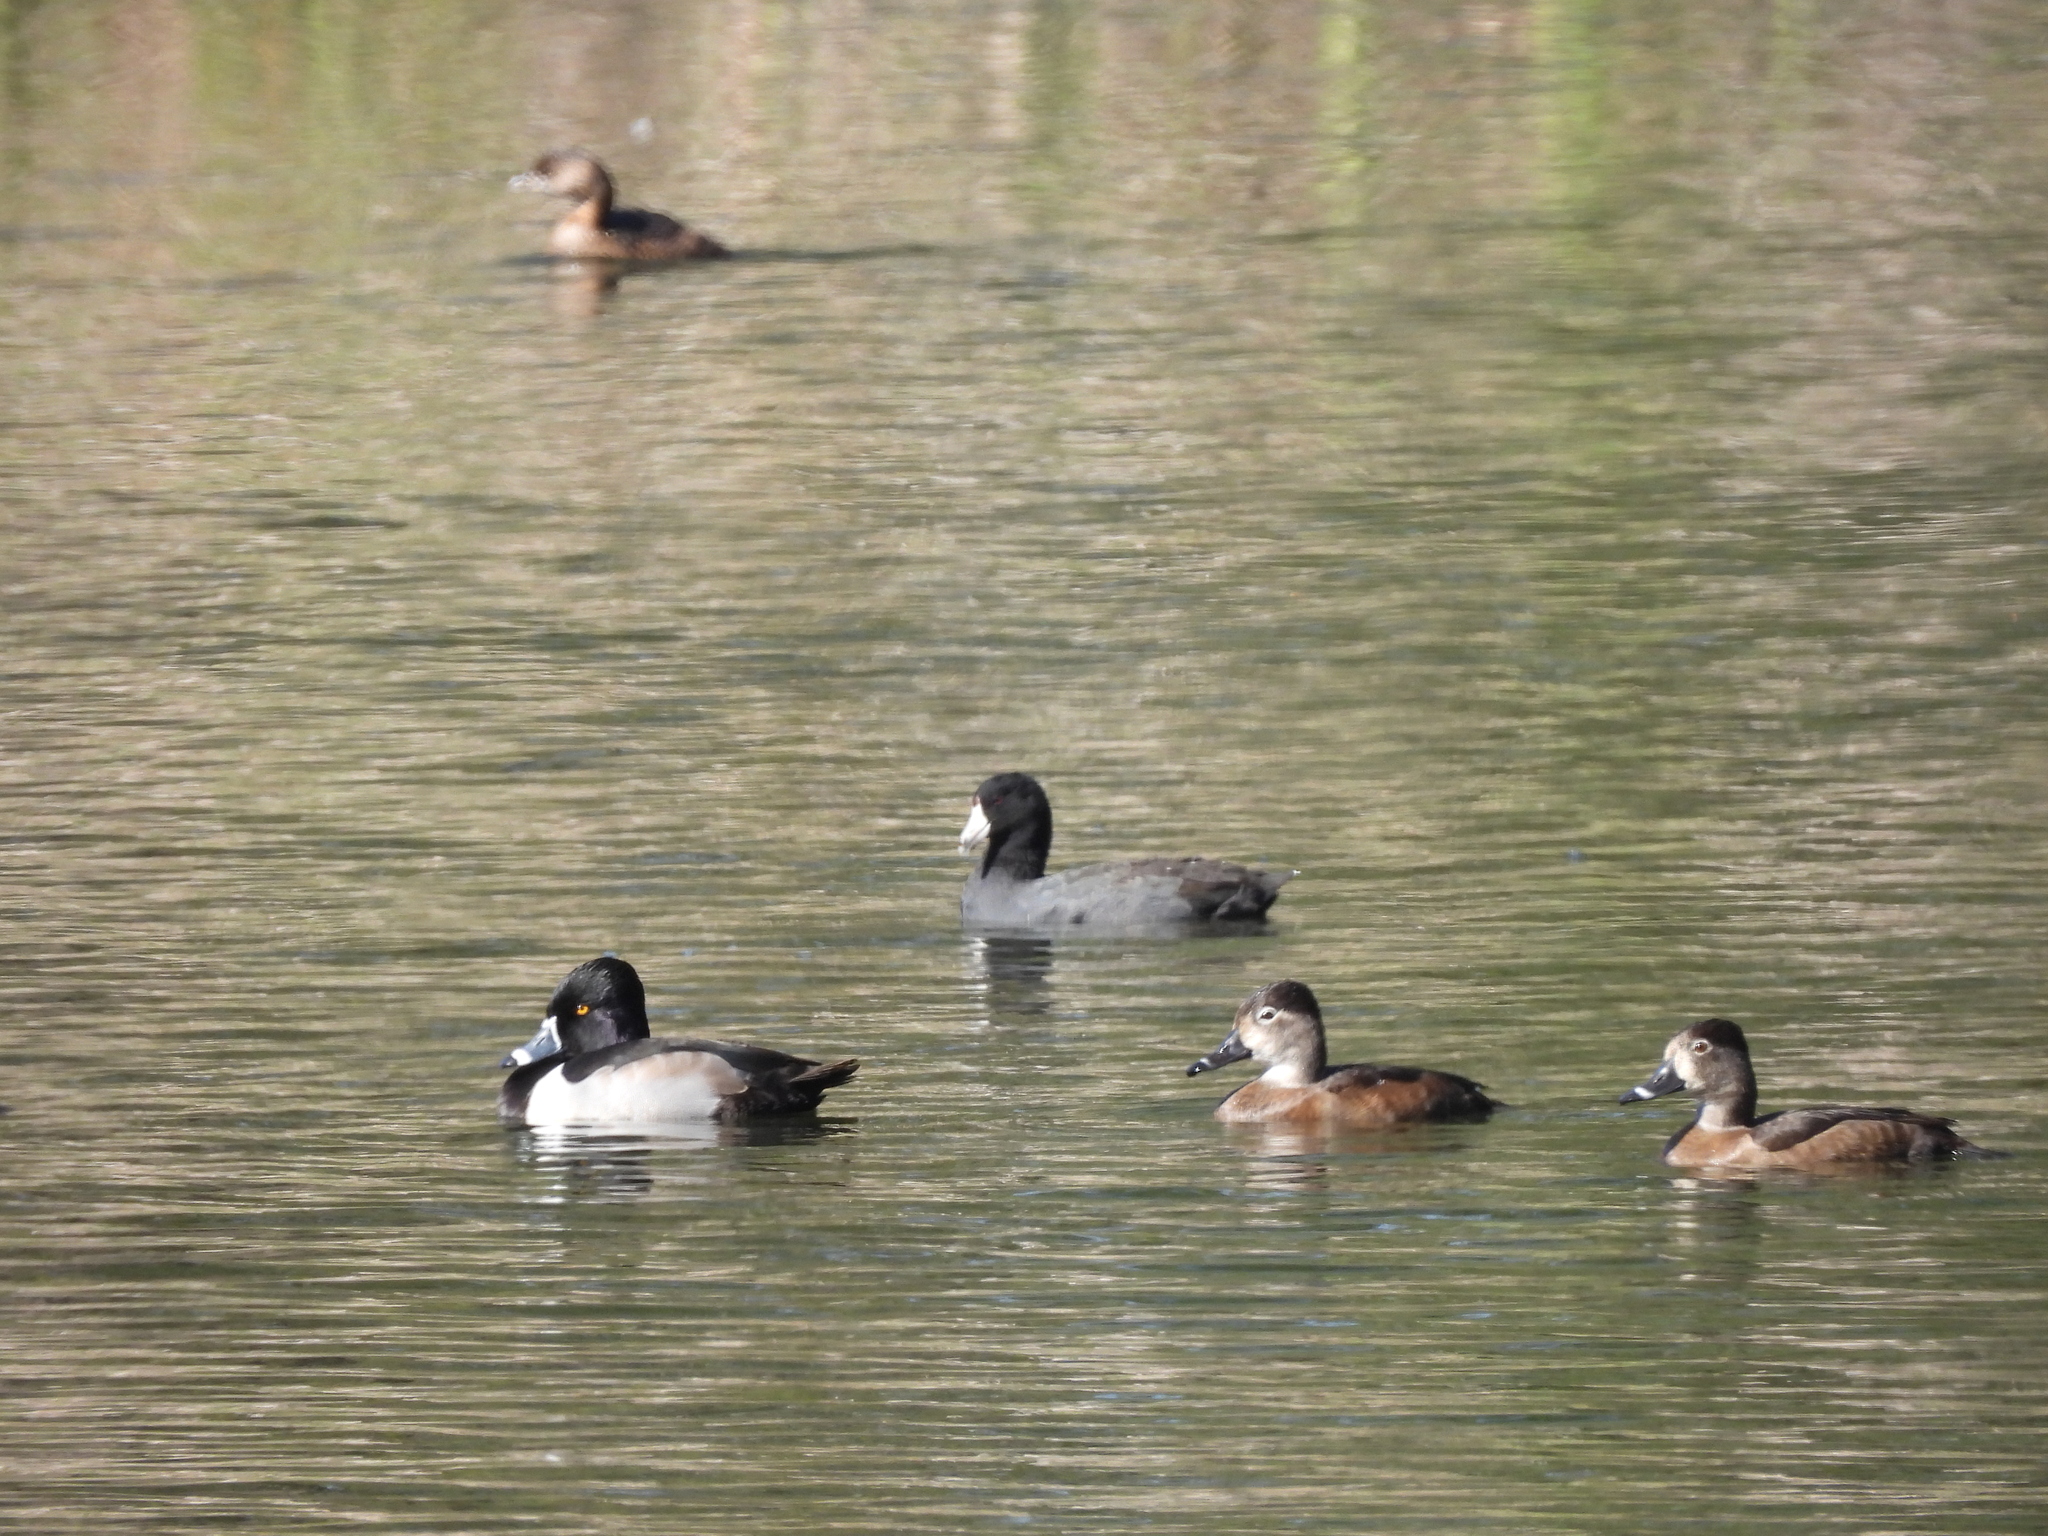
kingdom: Animalia
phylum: Chordata
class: Aves
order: Gruiformes
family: Rallidae
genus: Fulica
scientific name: Fulica americana
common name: American coot
